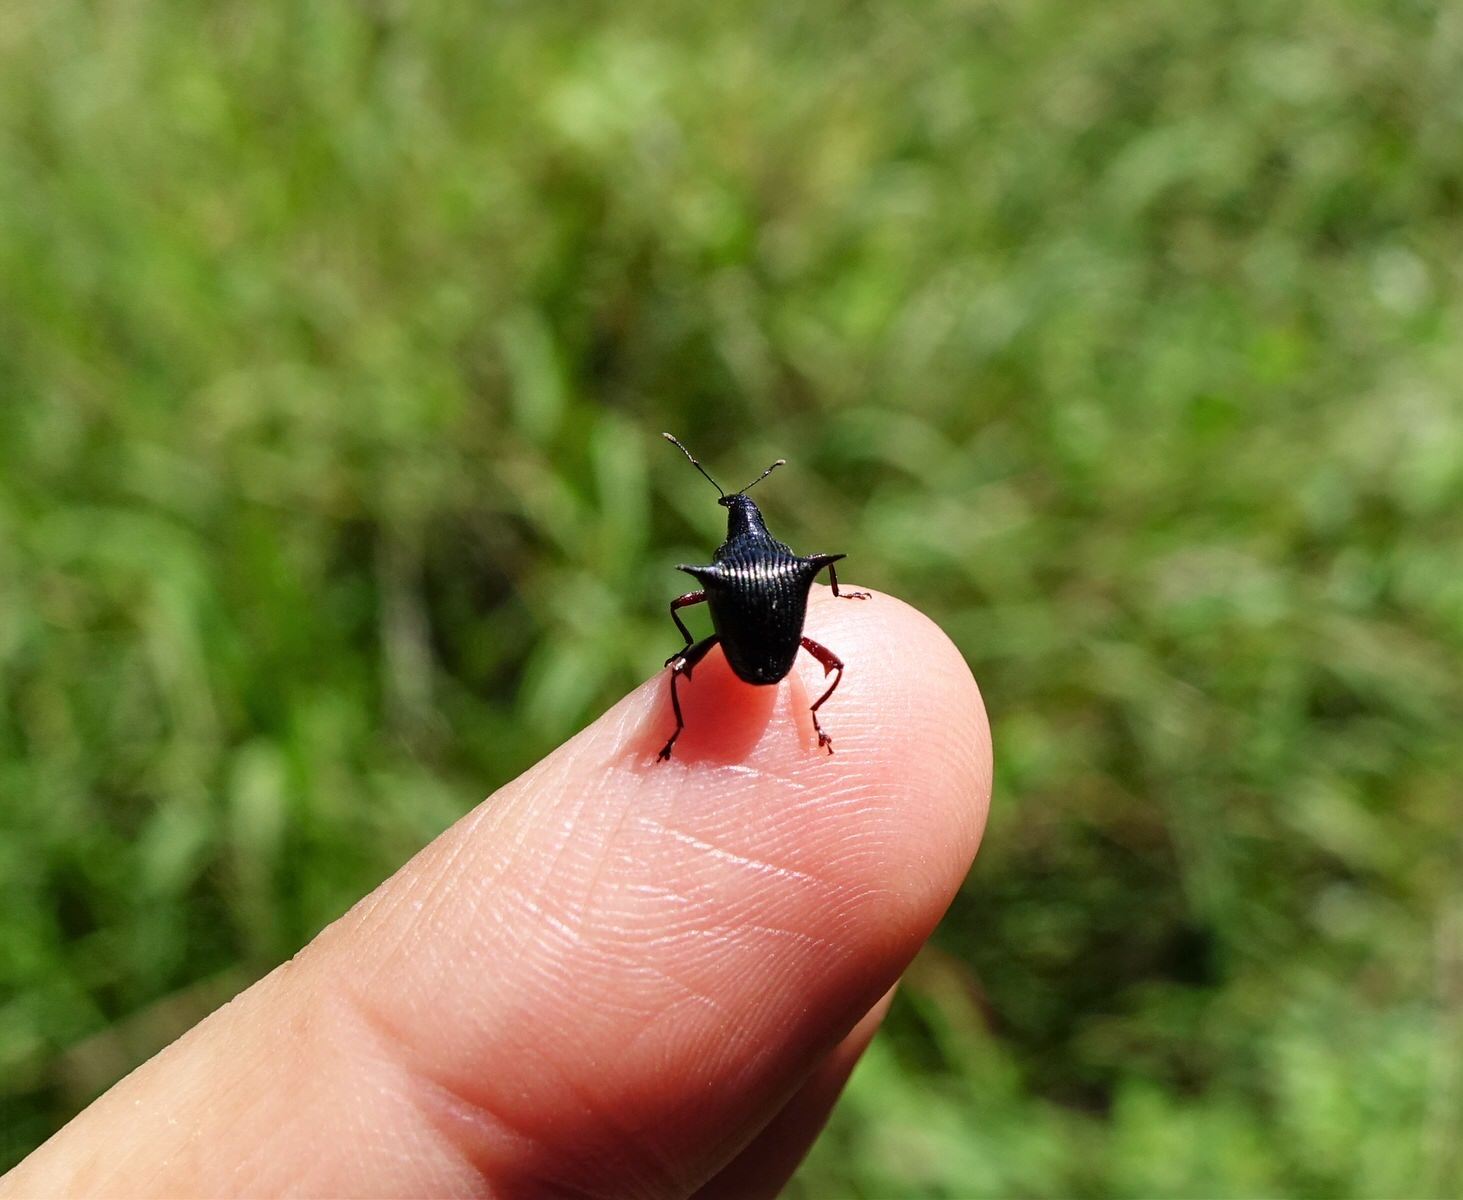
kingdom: Animalia
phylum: Arthropoda
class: Insecta
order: Coleoptera
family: Curculionidae
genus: Nyxetes
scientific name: Nyxetes bidens
